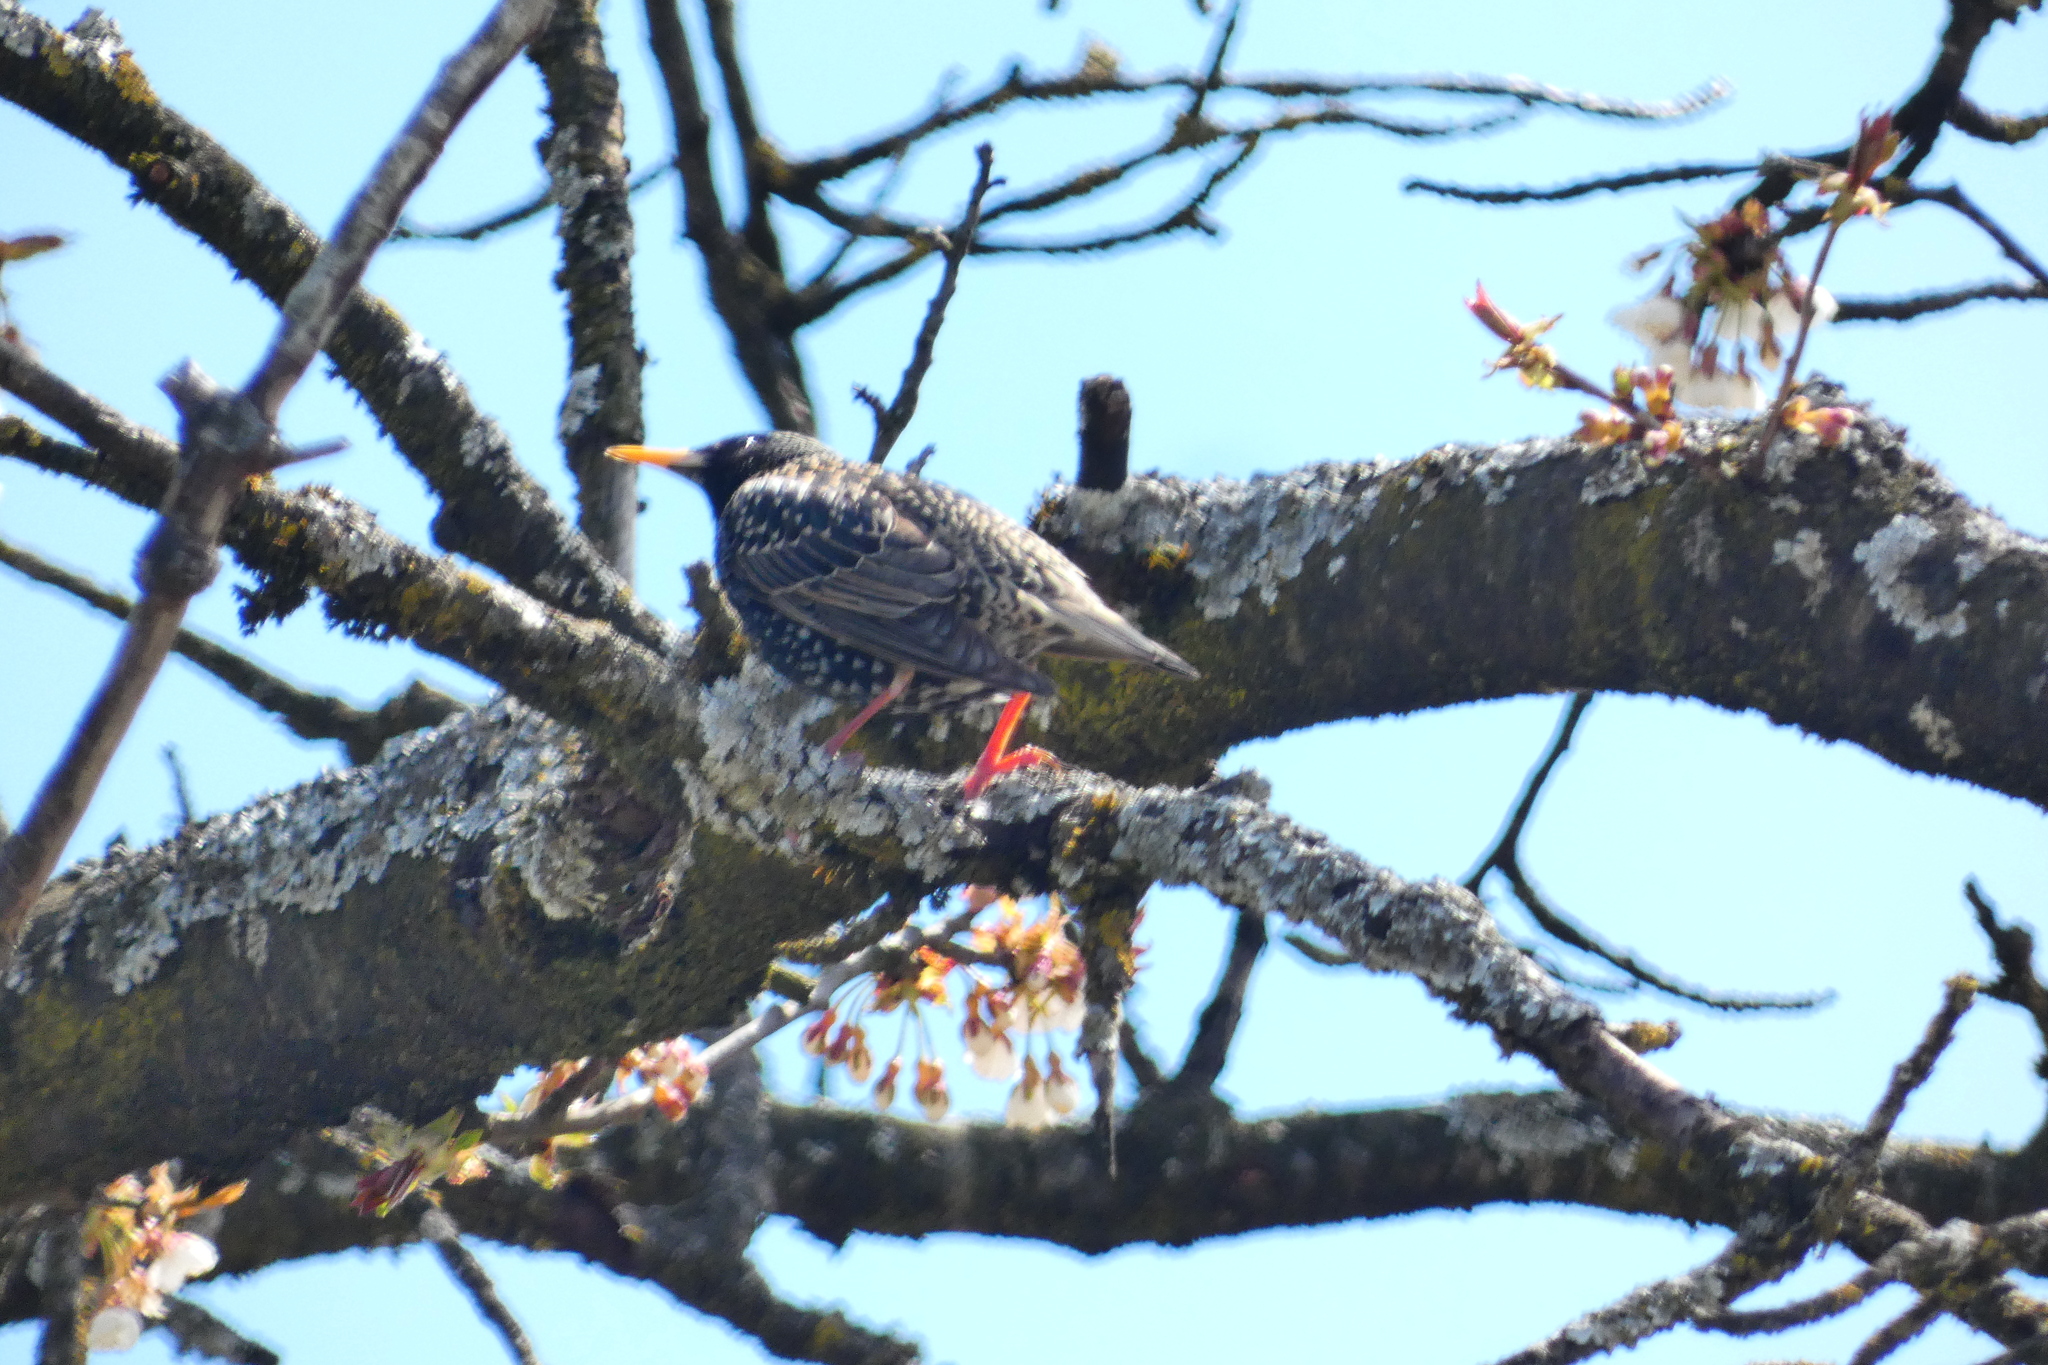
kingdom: Animalia
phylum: Chordata
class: Aves
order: Passeriformes
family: Sturnidae
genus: Sturnus
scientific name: Sturnus vulgaris
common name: Common starling
